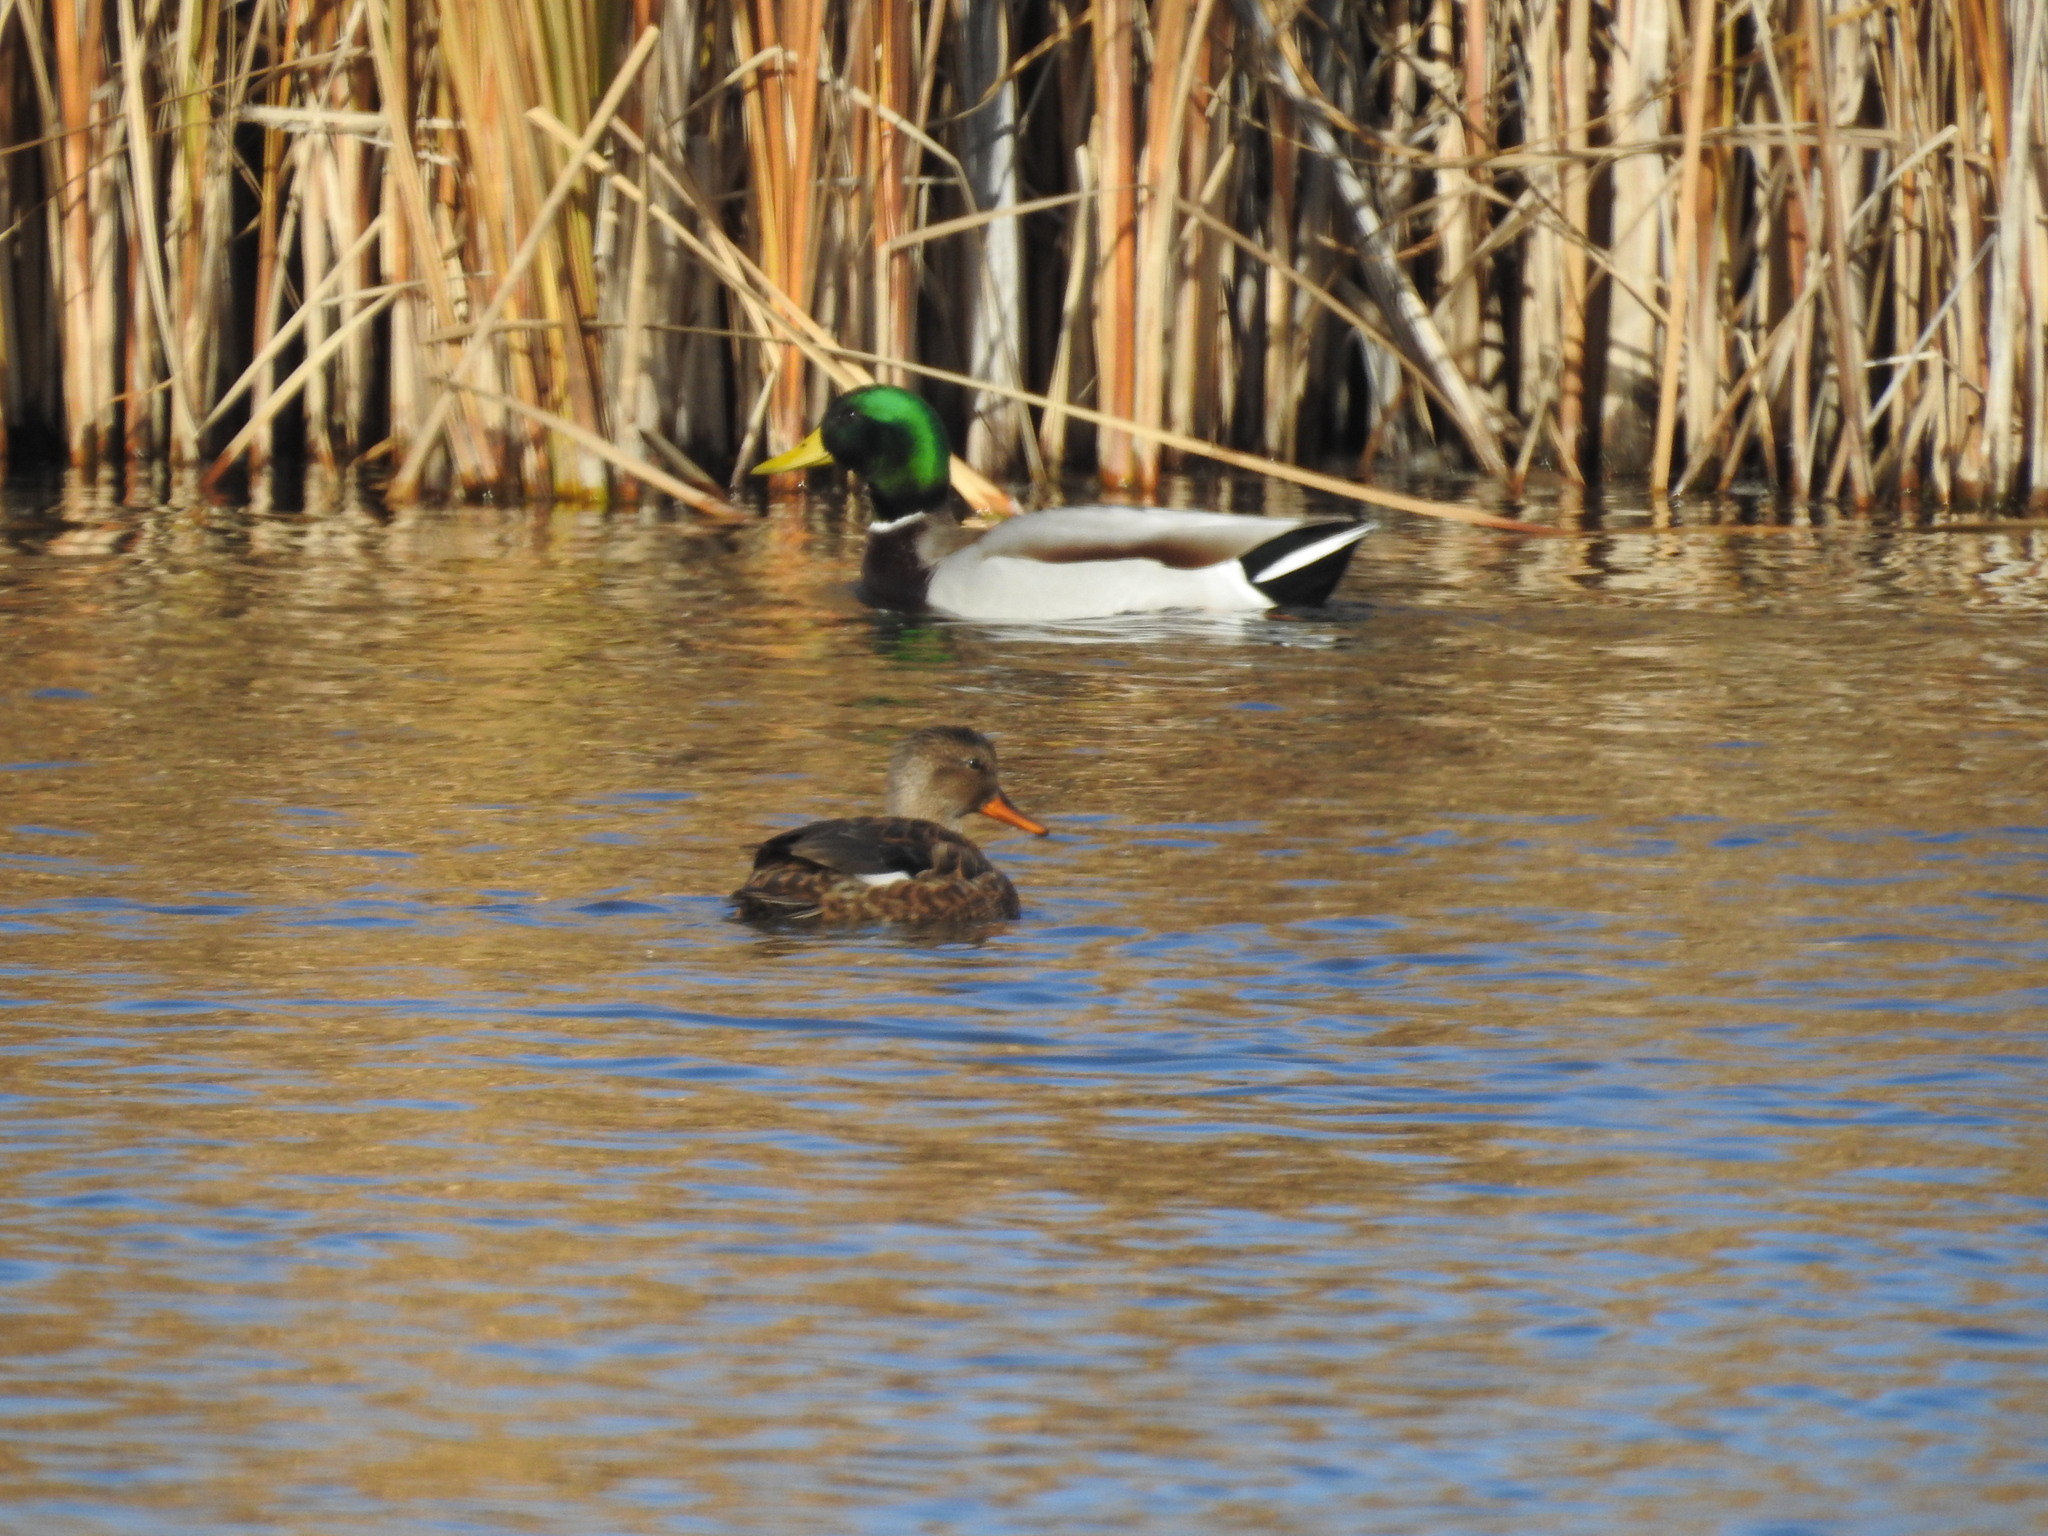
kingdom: Animalia
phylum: Chordata
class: Aves
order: Anseriformes
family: Anatidae
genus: Anas
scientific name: Anas platyrhynchos
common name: Mallard
